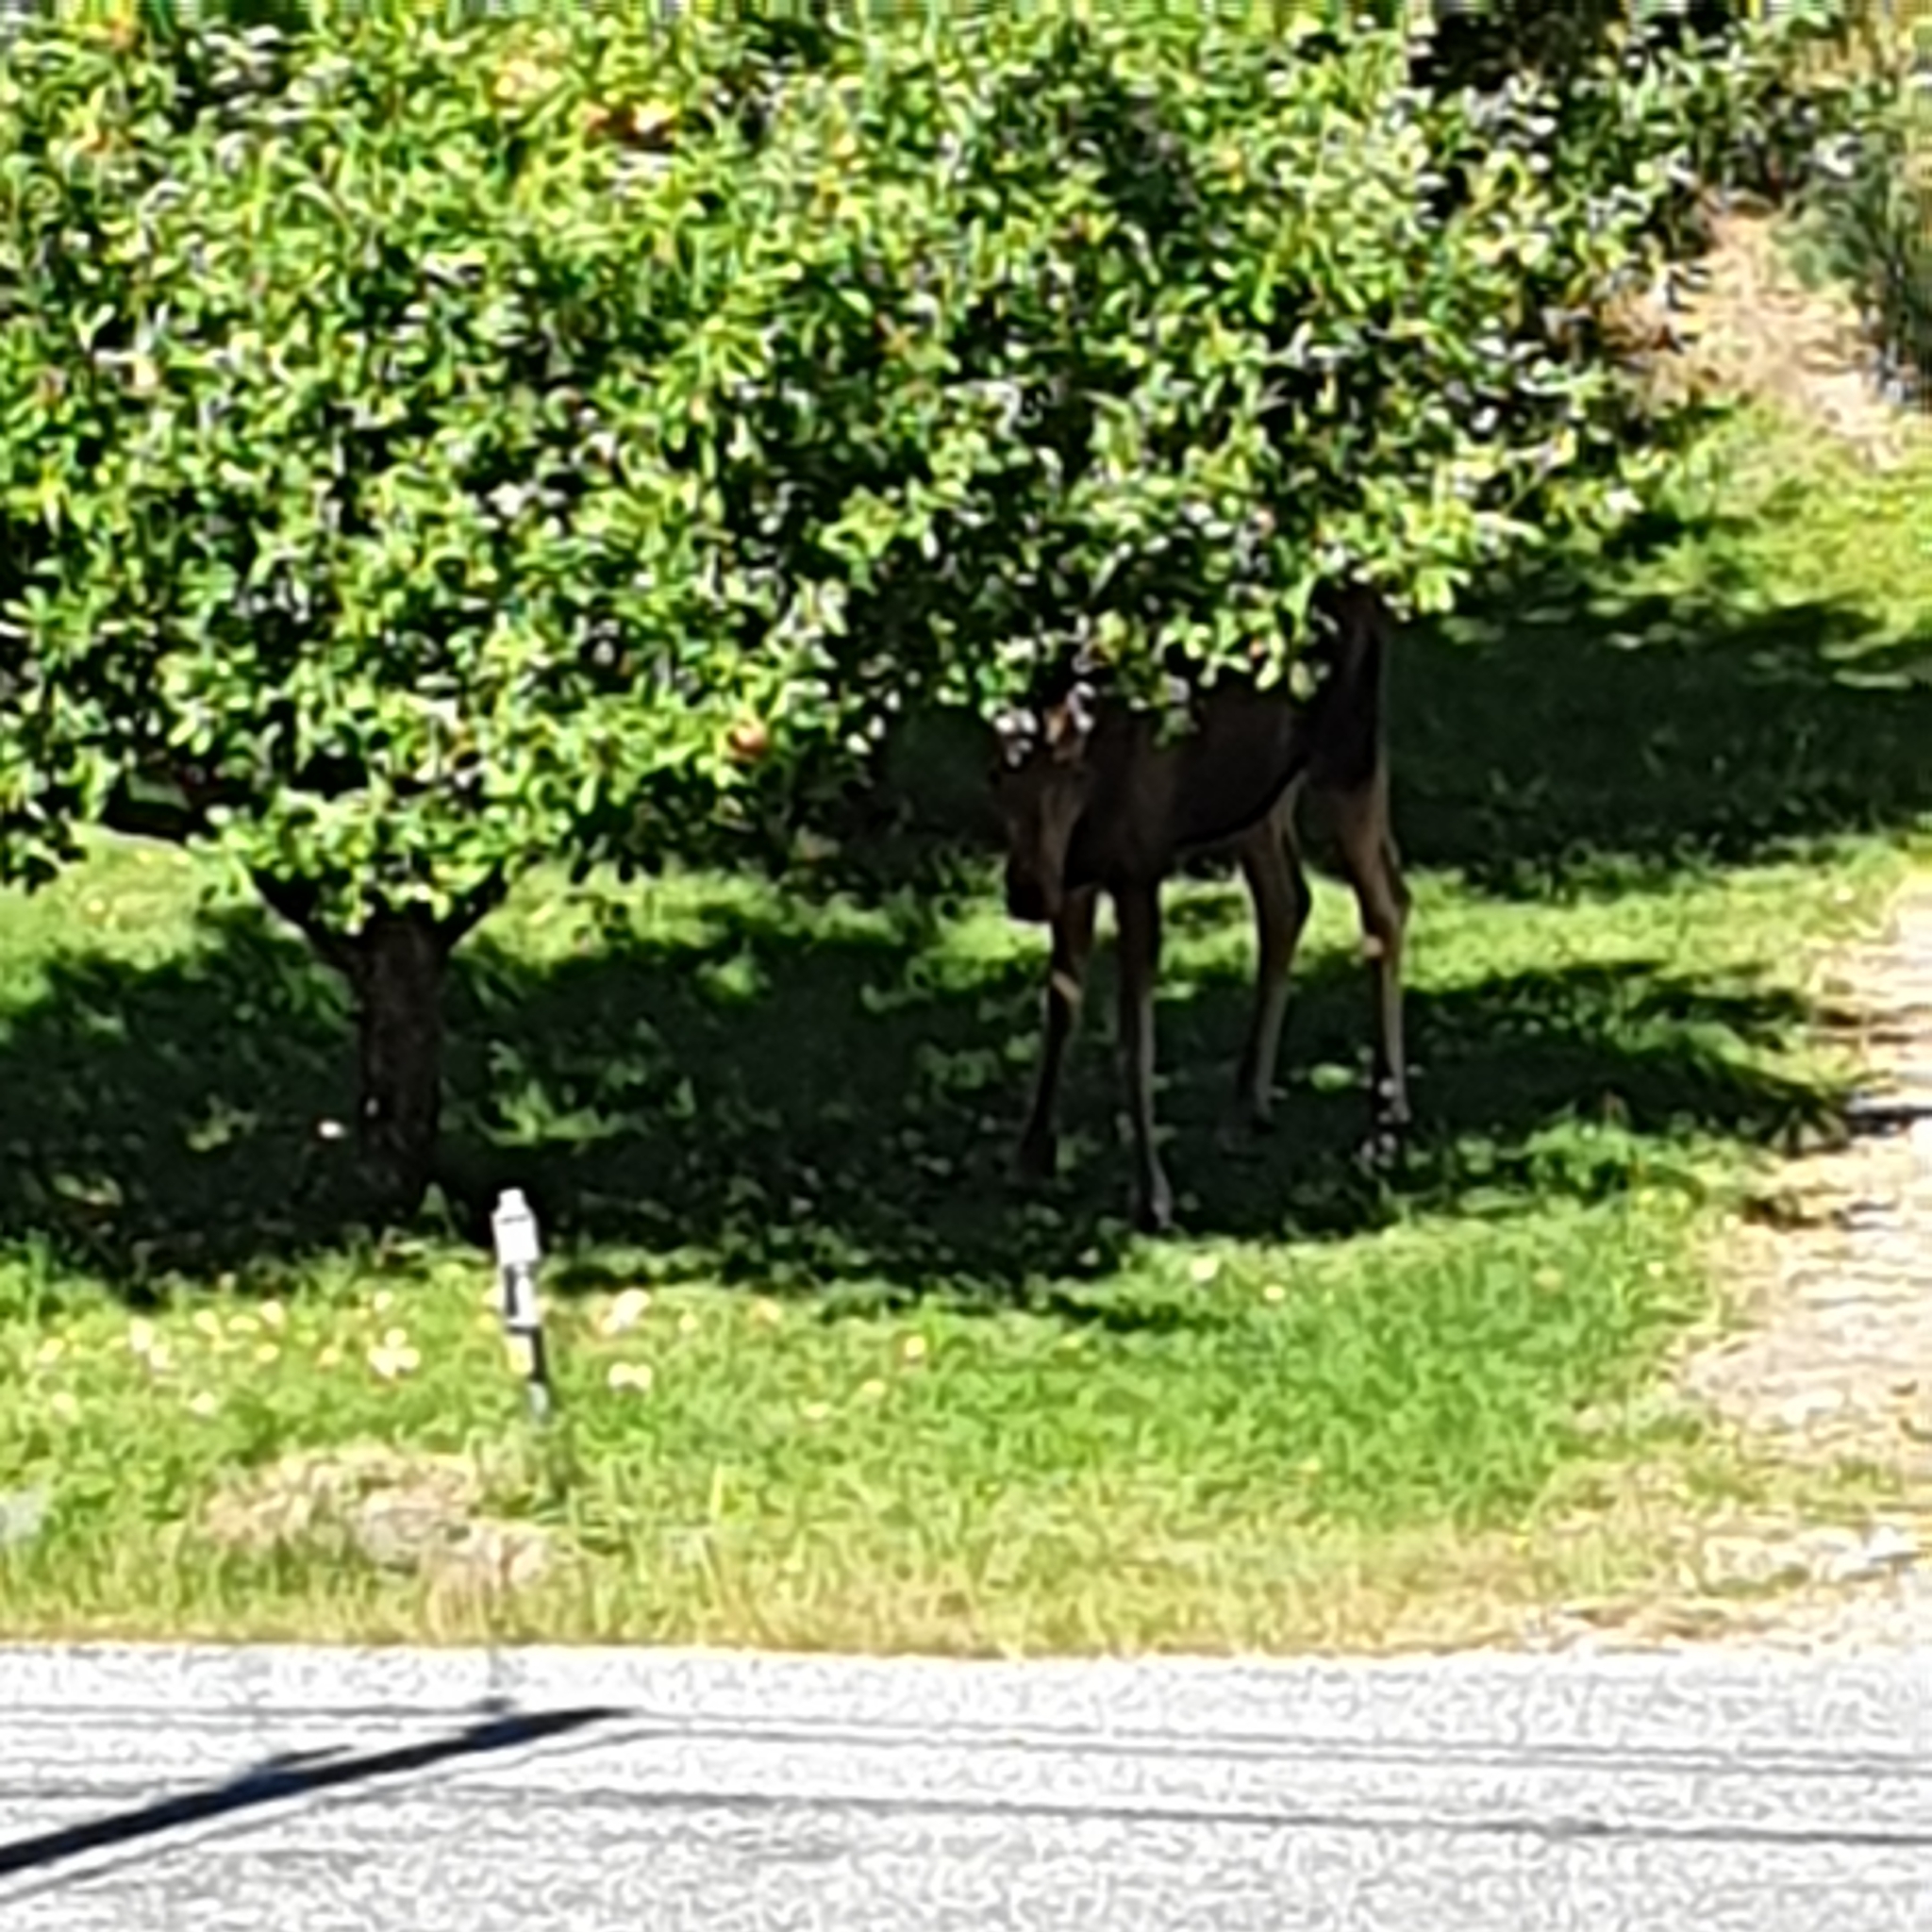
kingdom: Animalia
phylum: Chordata
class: Mammalia
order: Artiodactyla
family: Cervidae
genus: Alces
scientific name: Alces alces
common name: Moose
